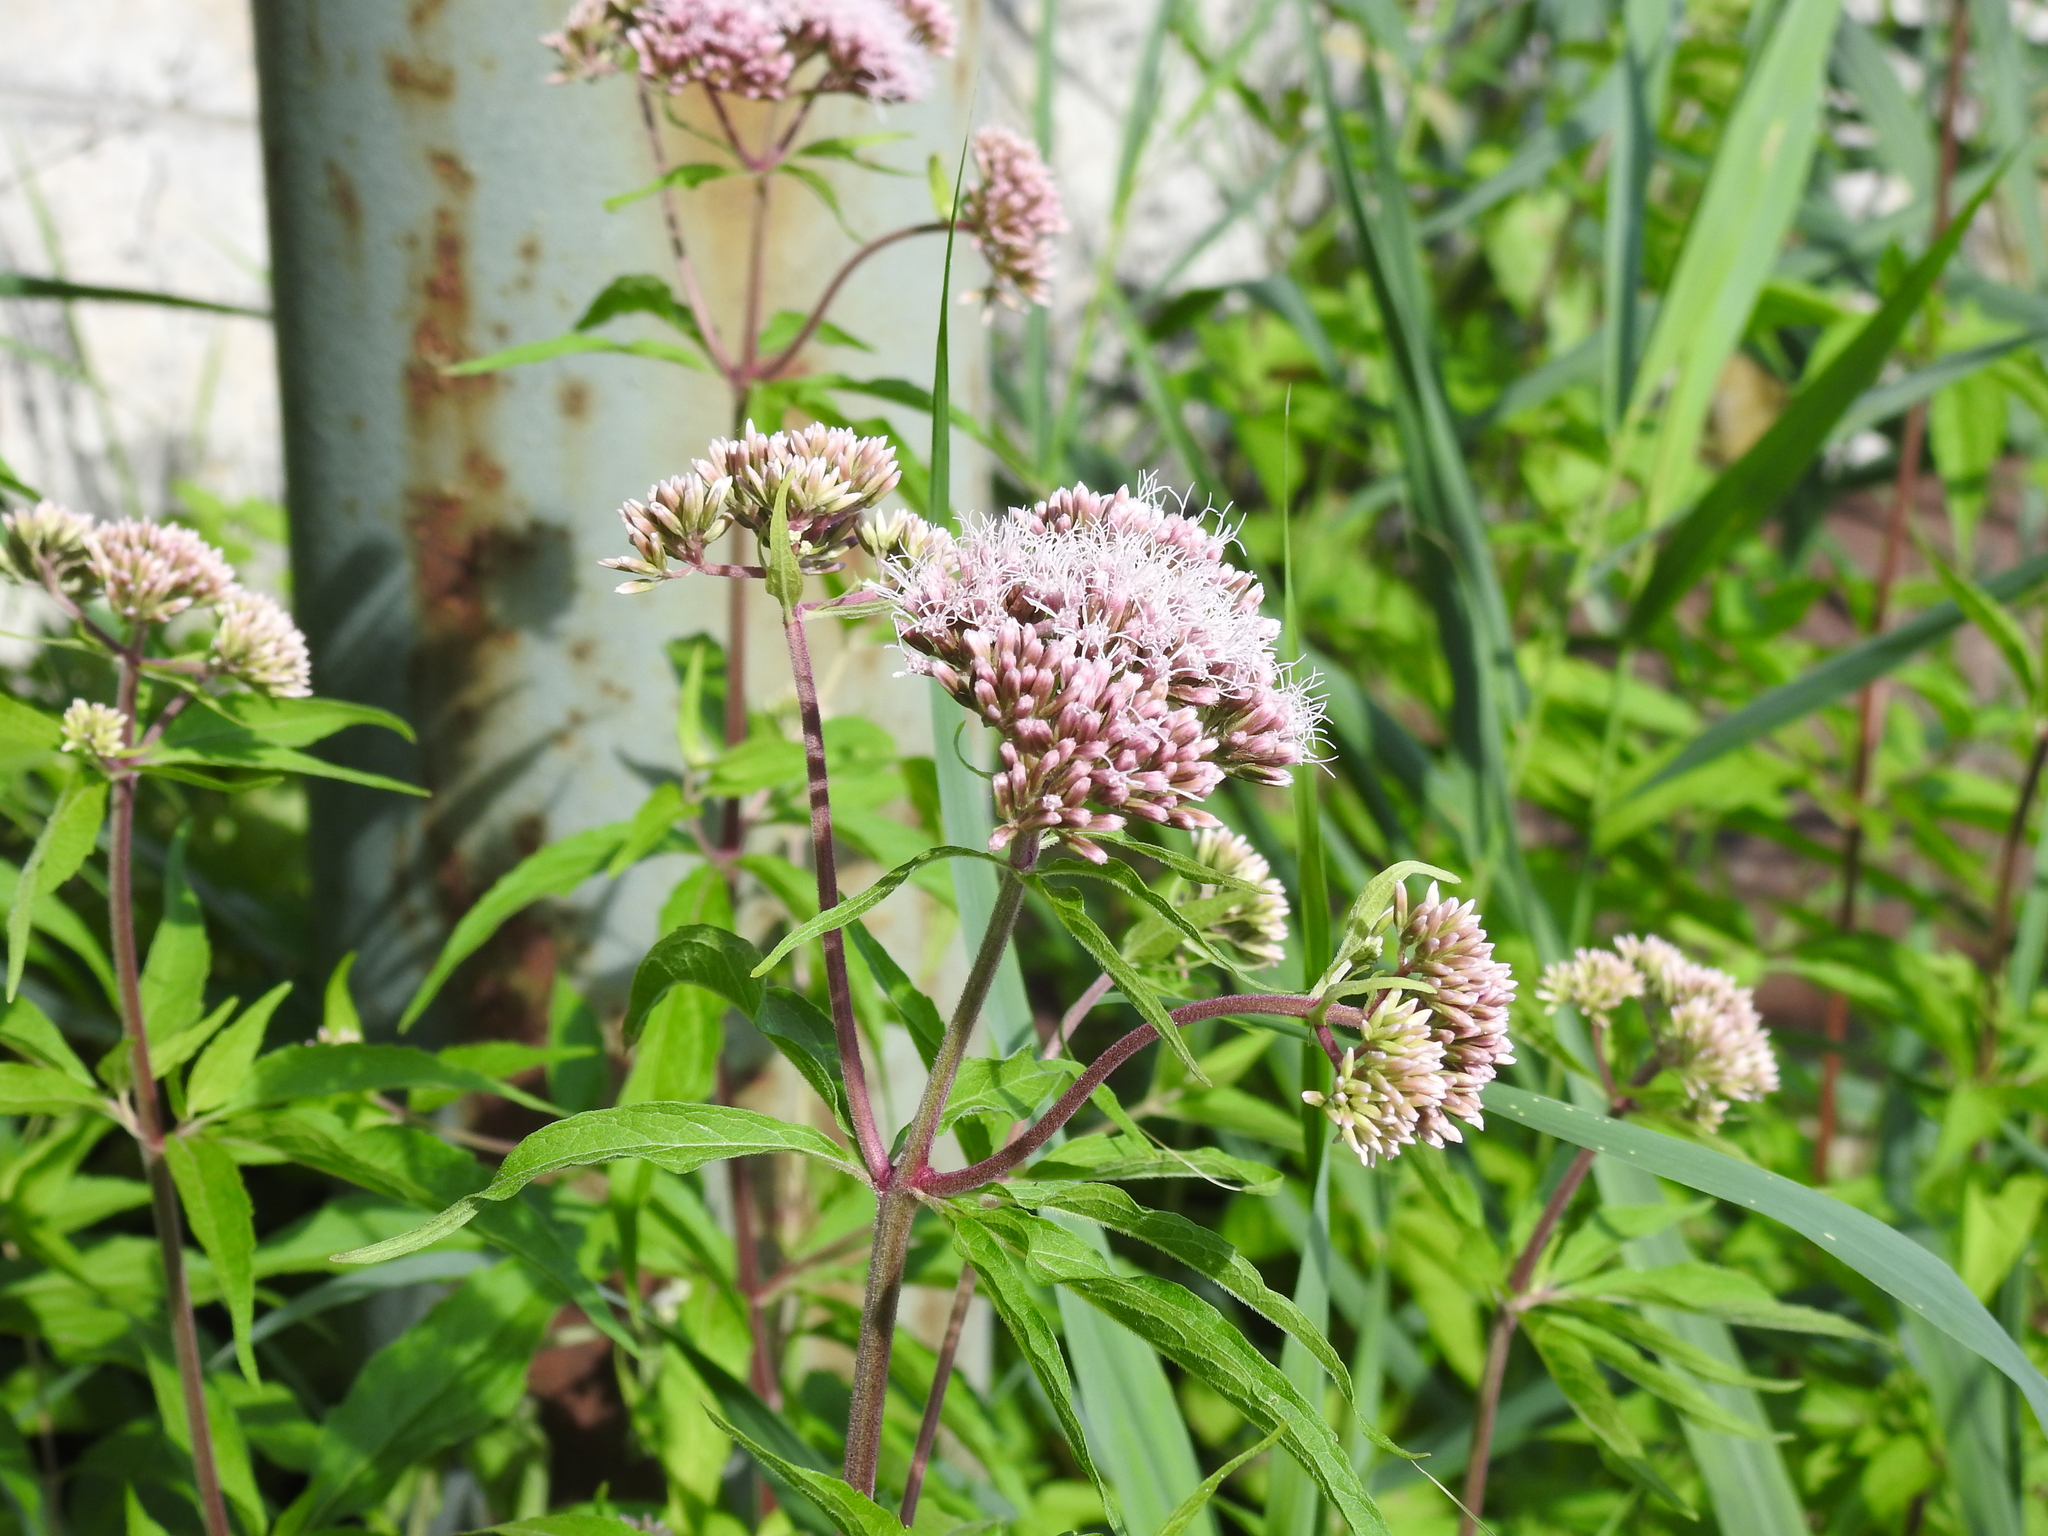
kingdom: Plantae
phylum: Tracheophyta
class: Magnoliopsida
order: Asterales
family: Asteraceae
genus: Eupatorium
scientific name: Eupatorium cannabinum
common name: Hemp-agrimony
